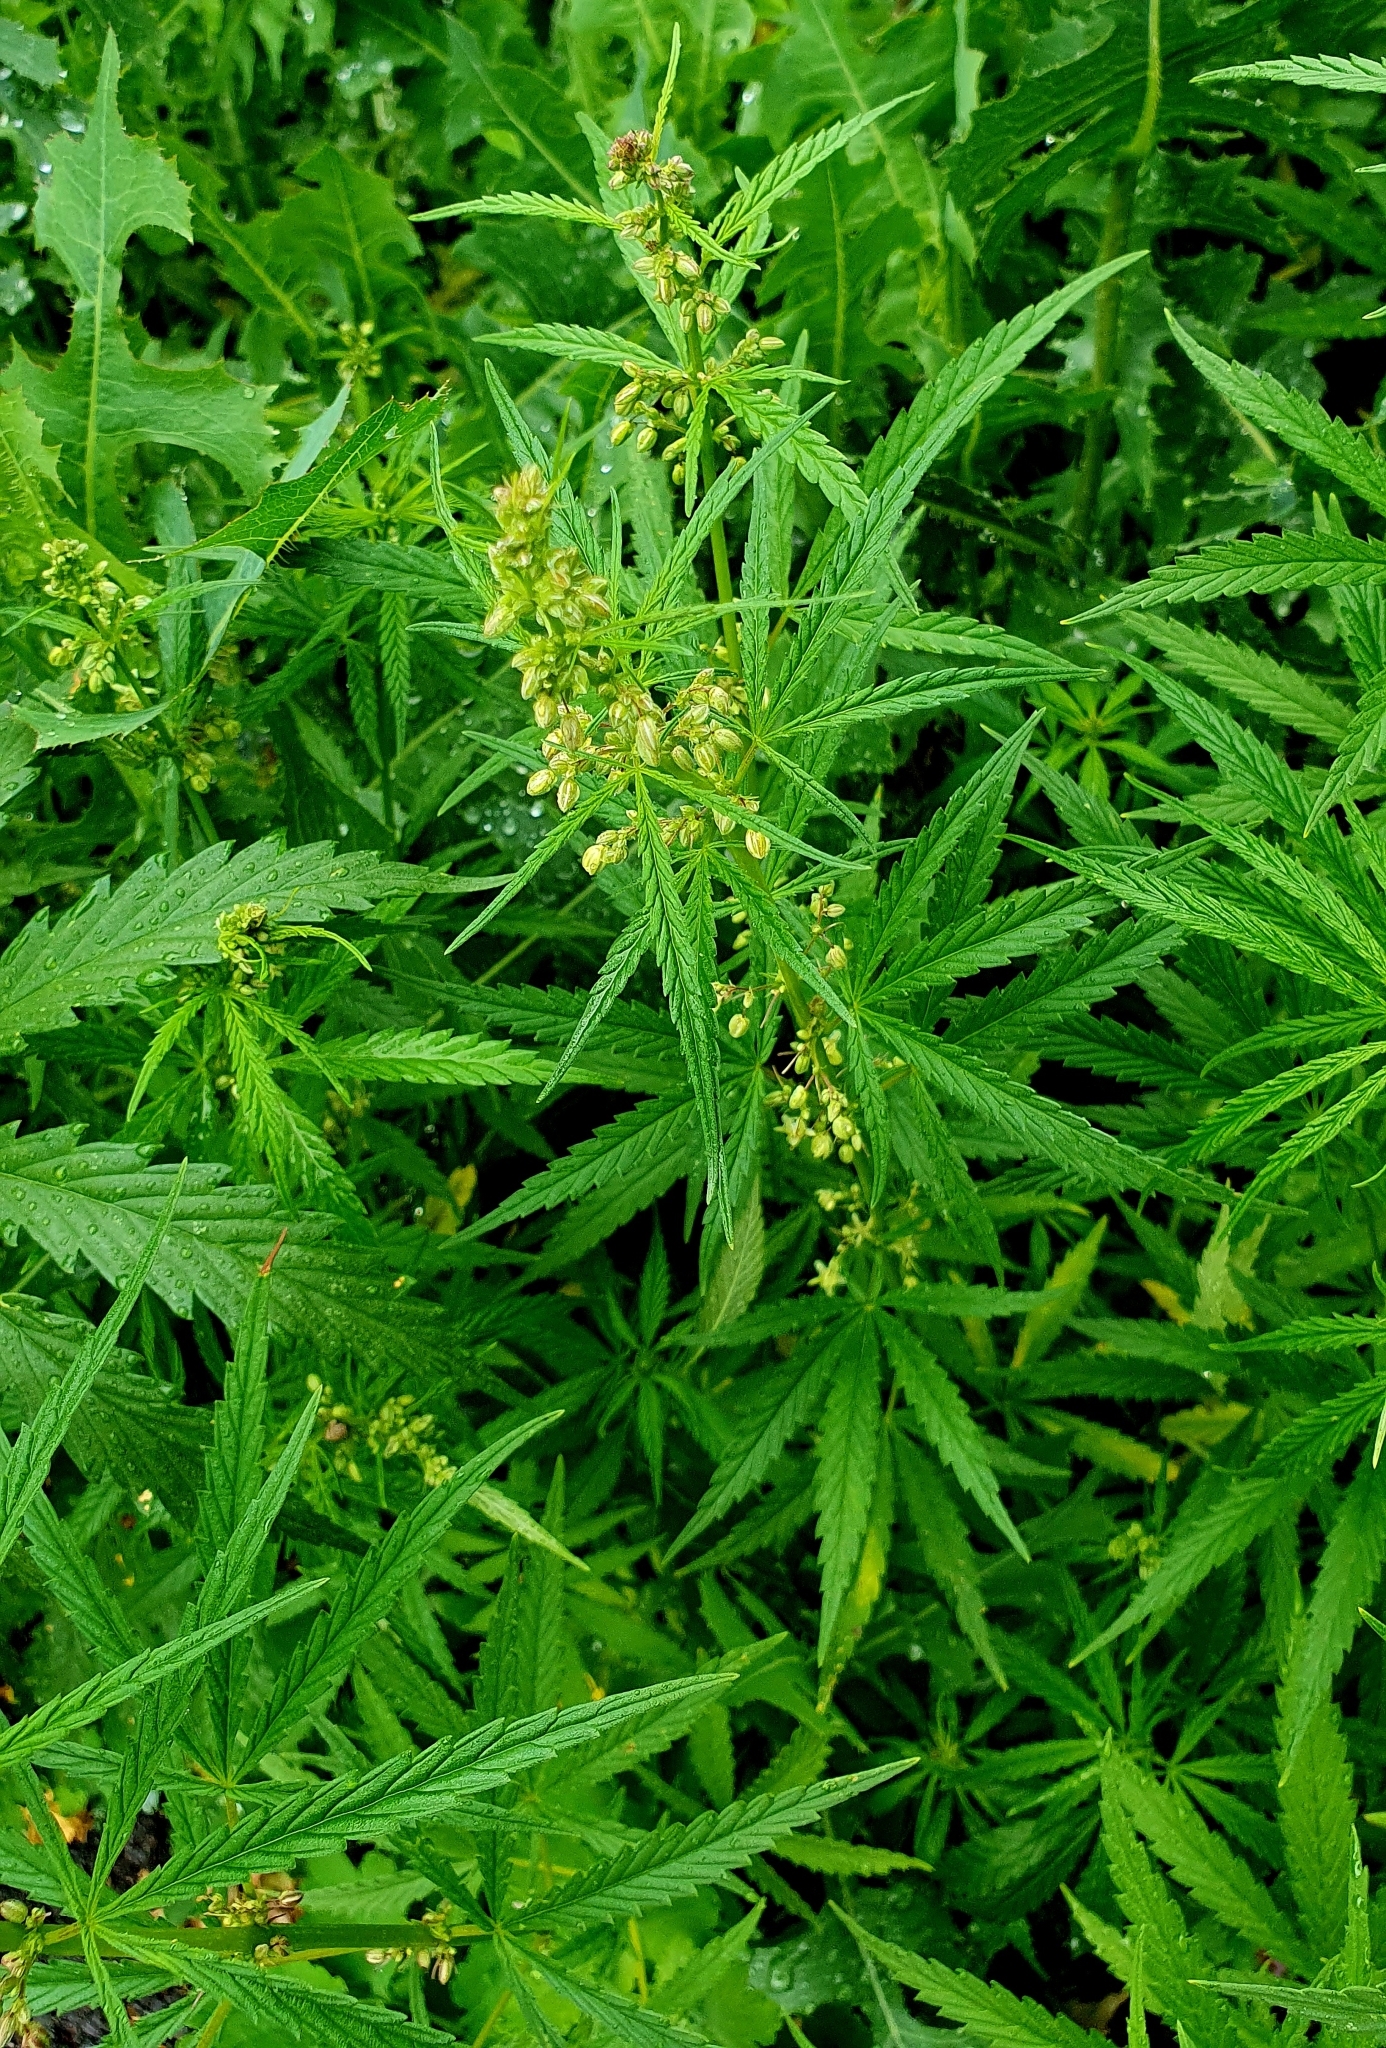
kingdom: Plantae
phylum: Tracheophyta
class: Magnoliopsida
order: Rosales
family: Cannabaceae
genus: Cannabis
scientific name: Cannabis sativa
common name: Hemp
